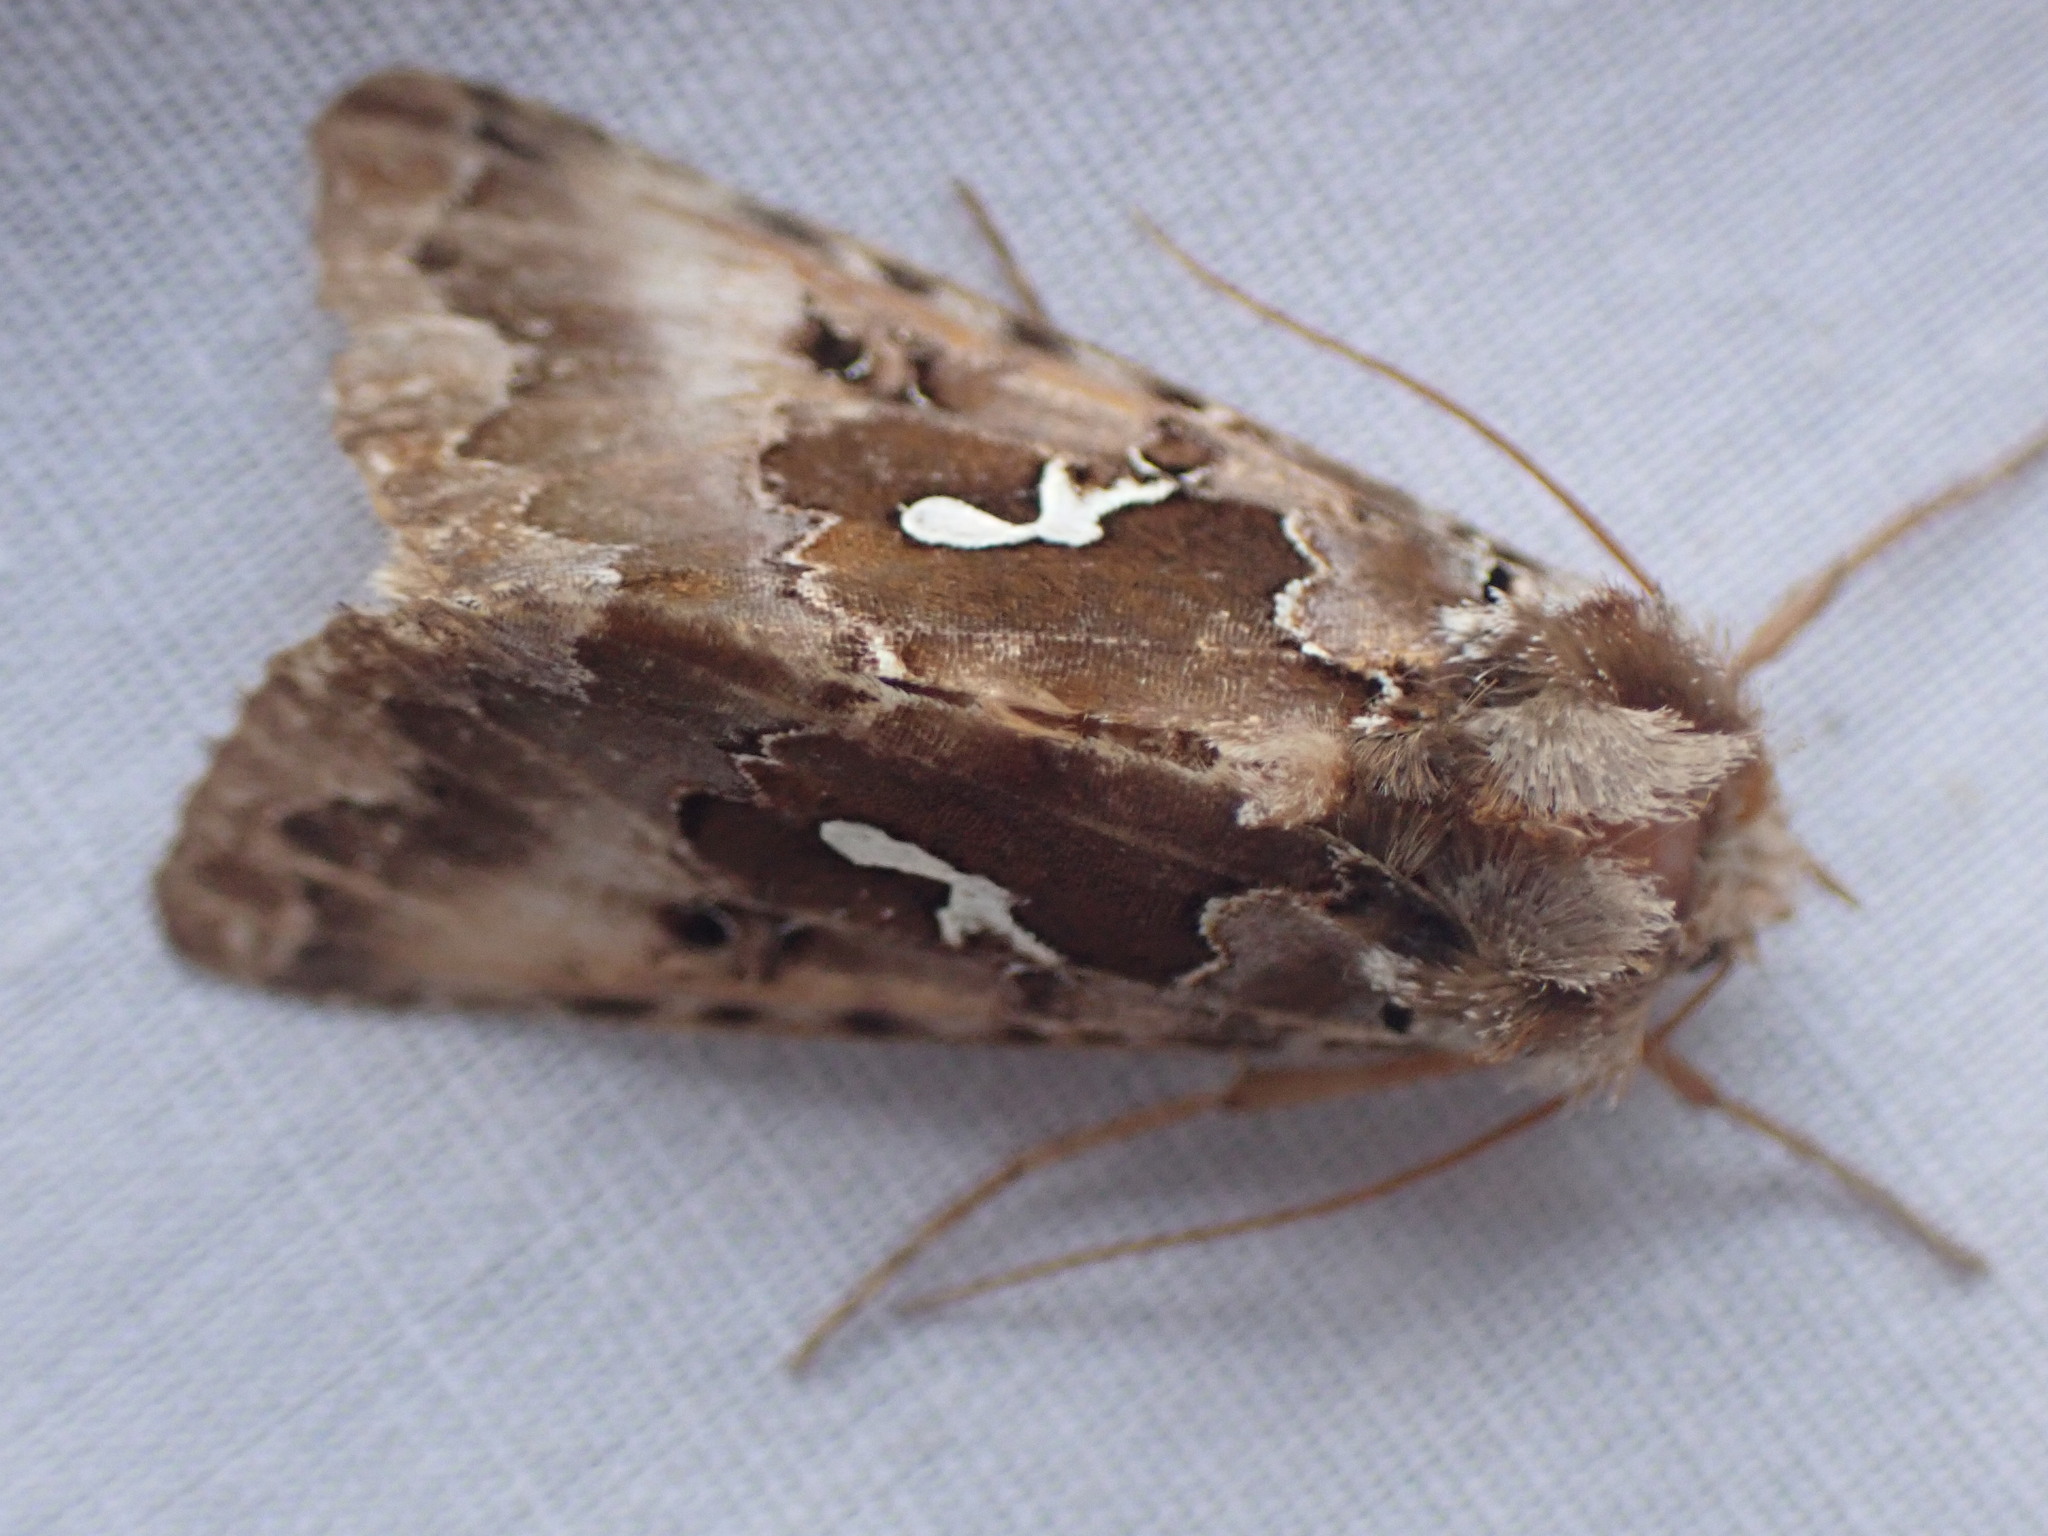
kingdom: Animalia
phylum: Arthropoda
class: Insecta
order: Lepidoptera
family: Noctuidae
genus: Autographa
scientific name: Autographa corusca
